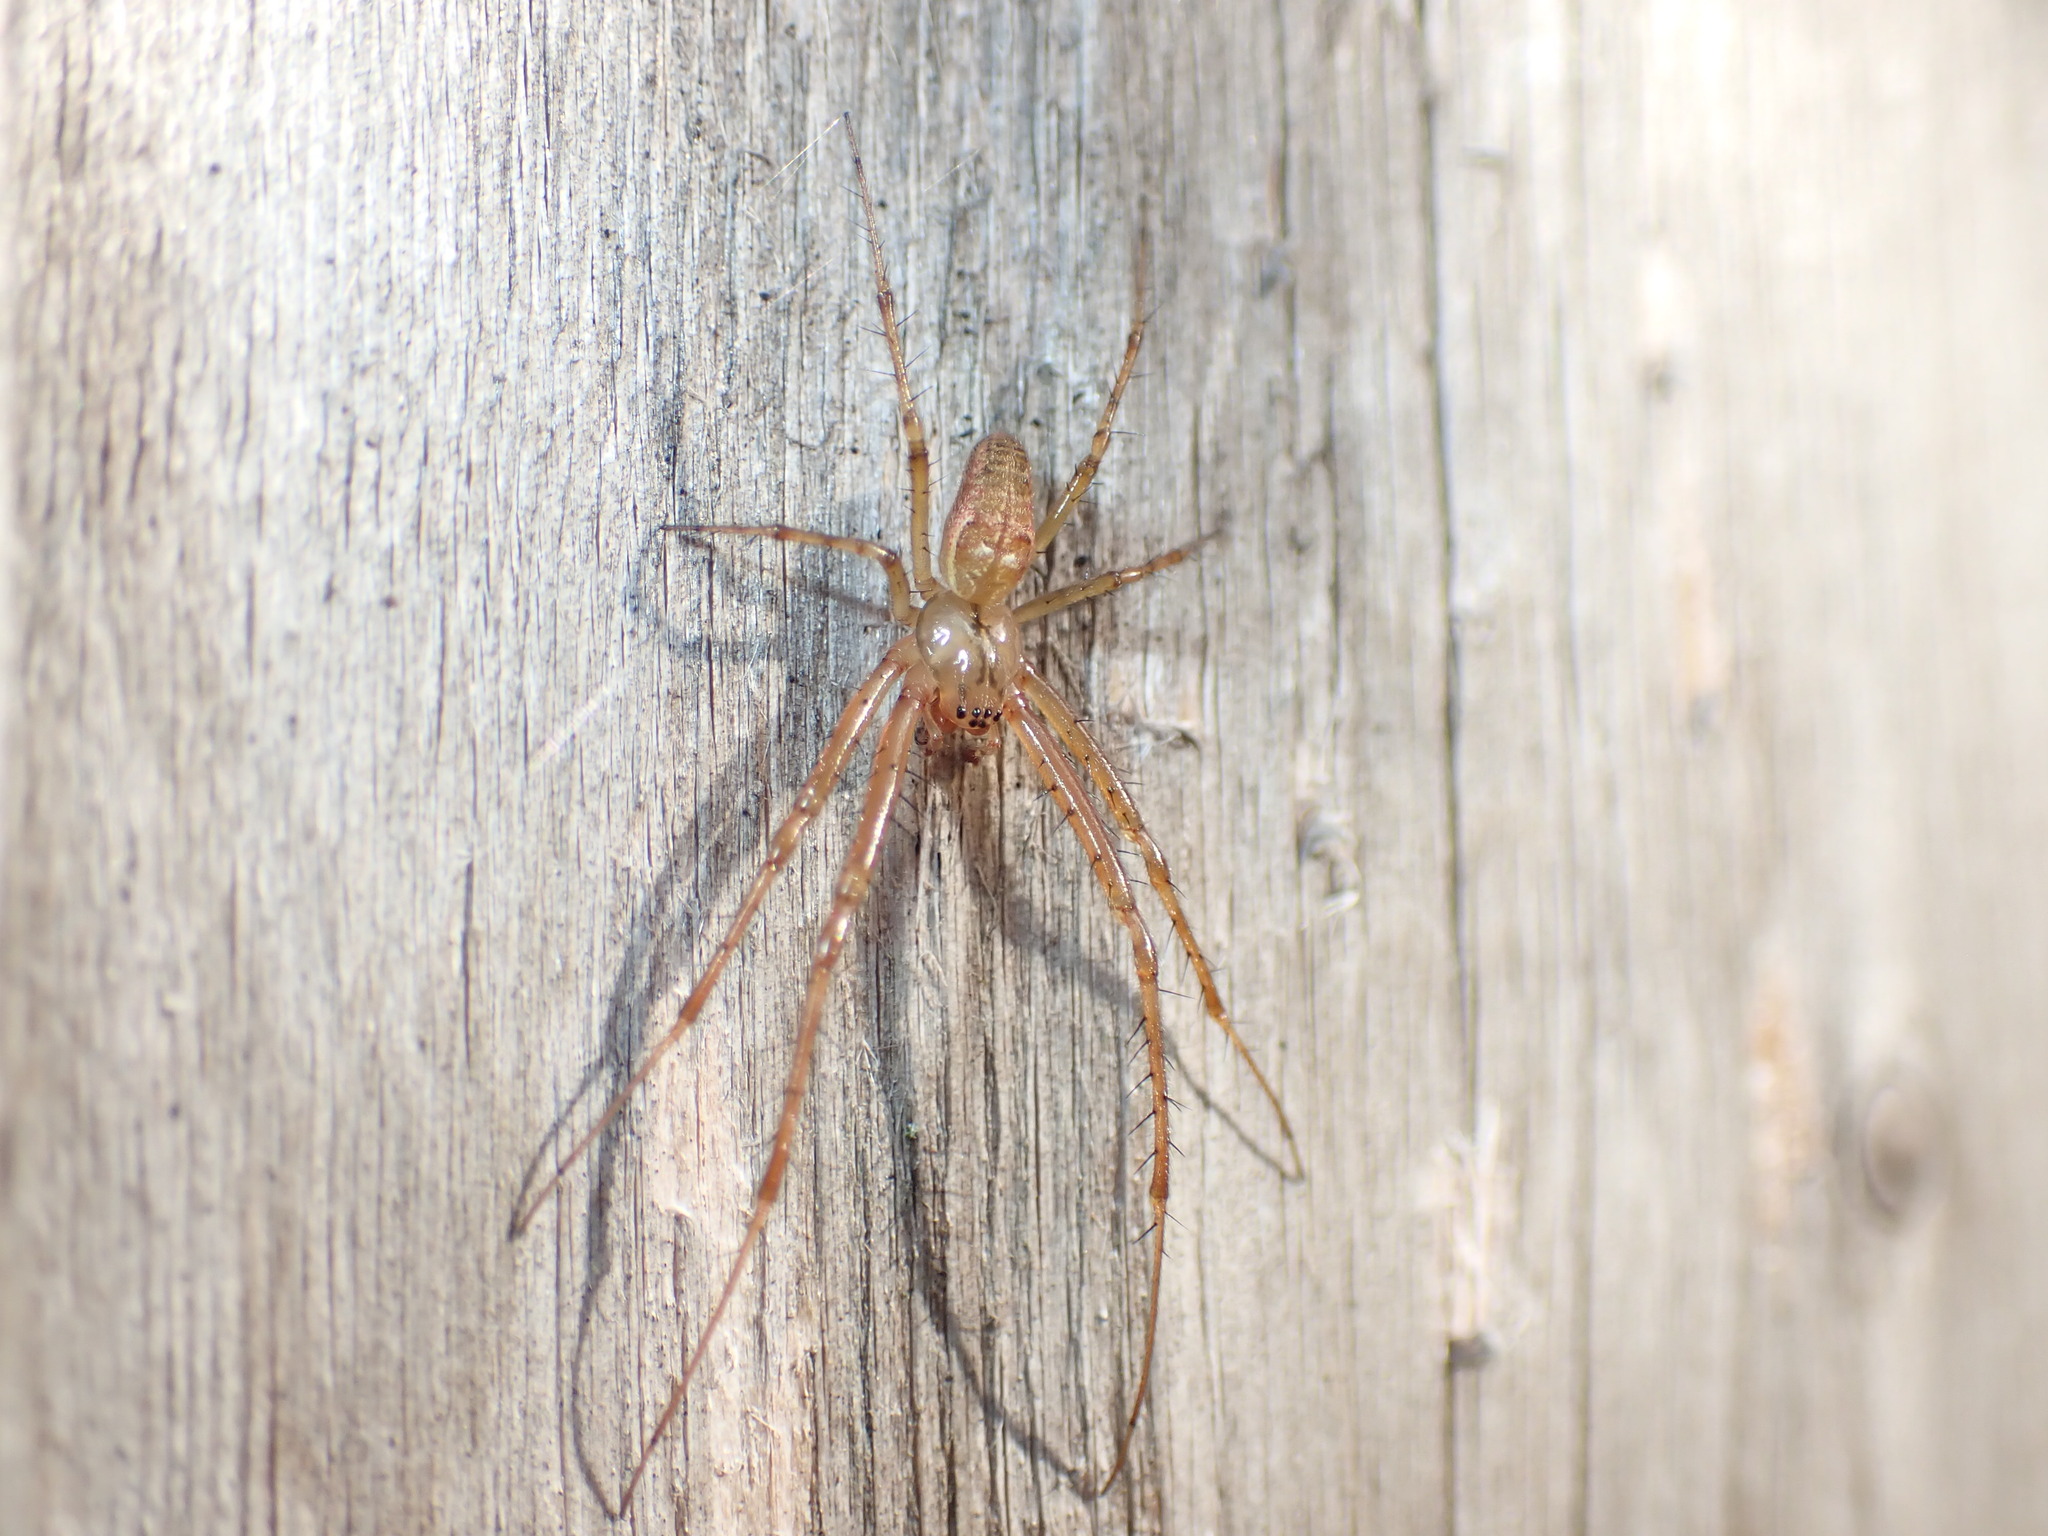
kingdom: Animalia
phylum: Arthropoda
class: Arachnida
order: Araneae
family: Tetragnathidae
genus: Metellina
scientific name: Metellina segmentata
